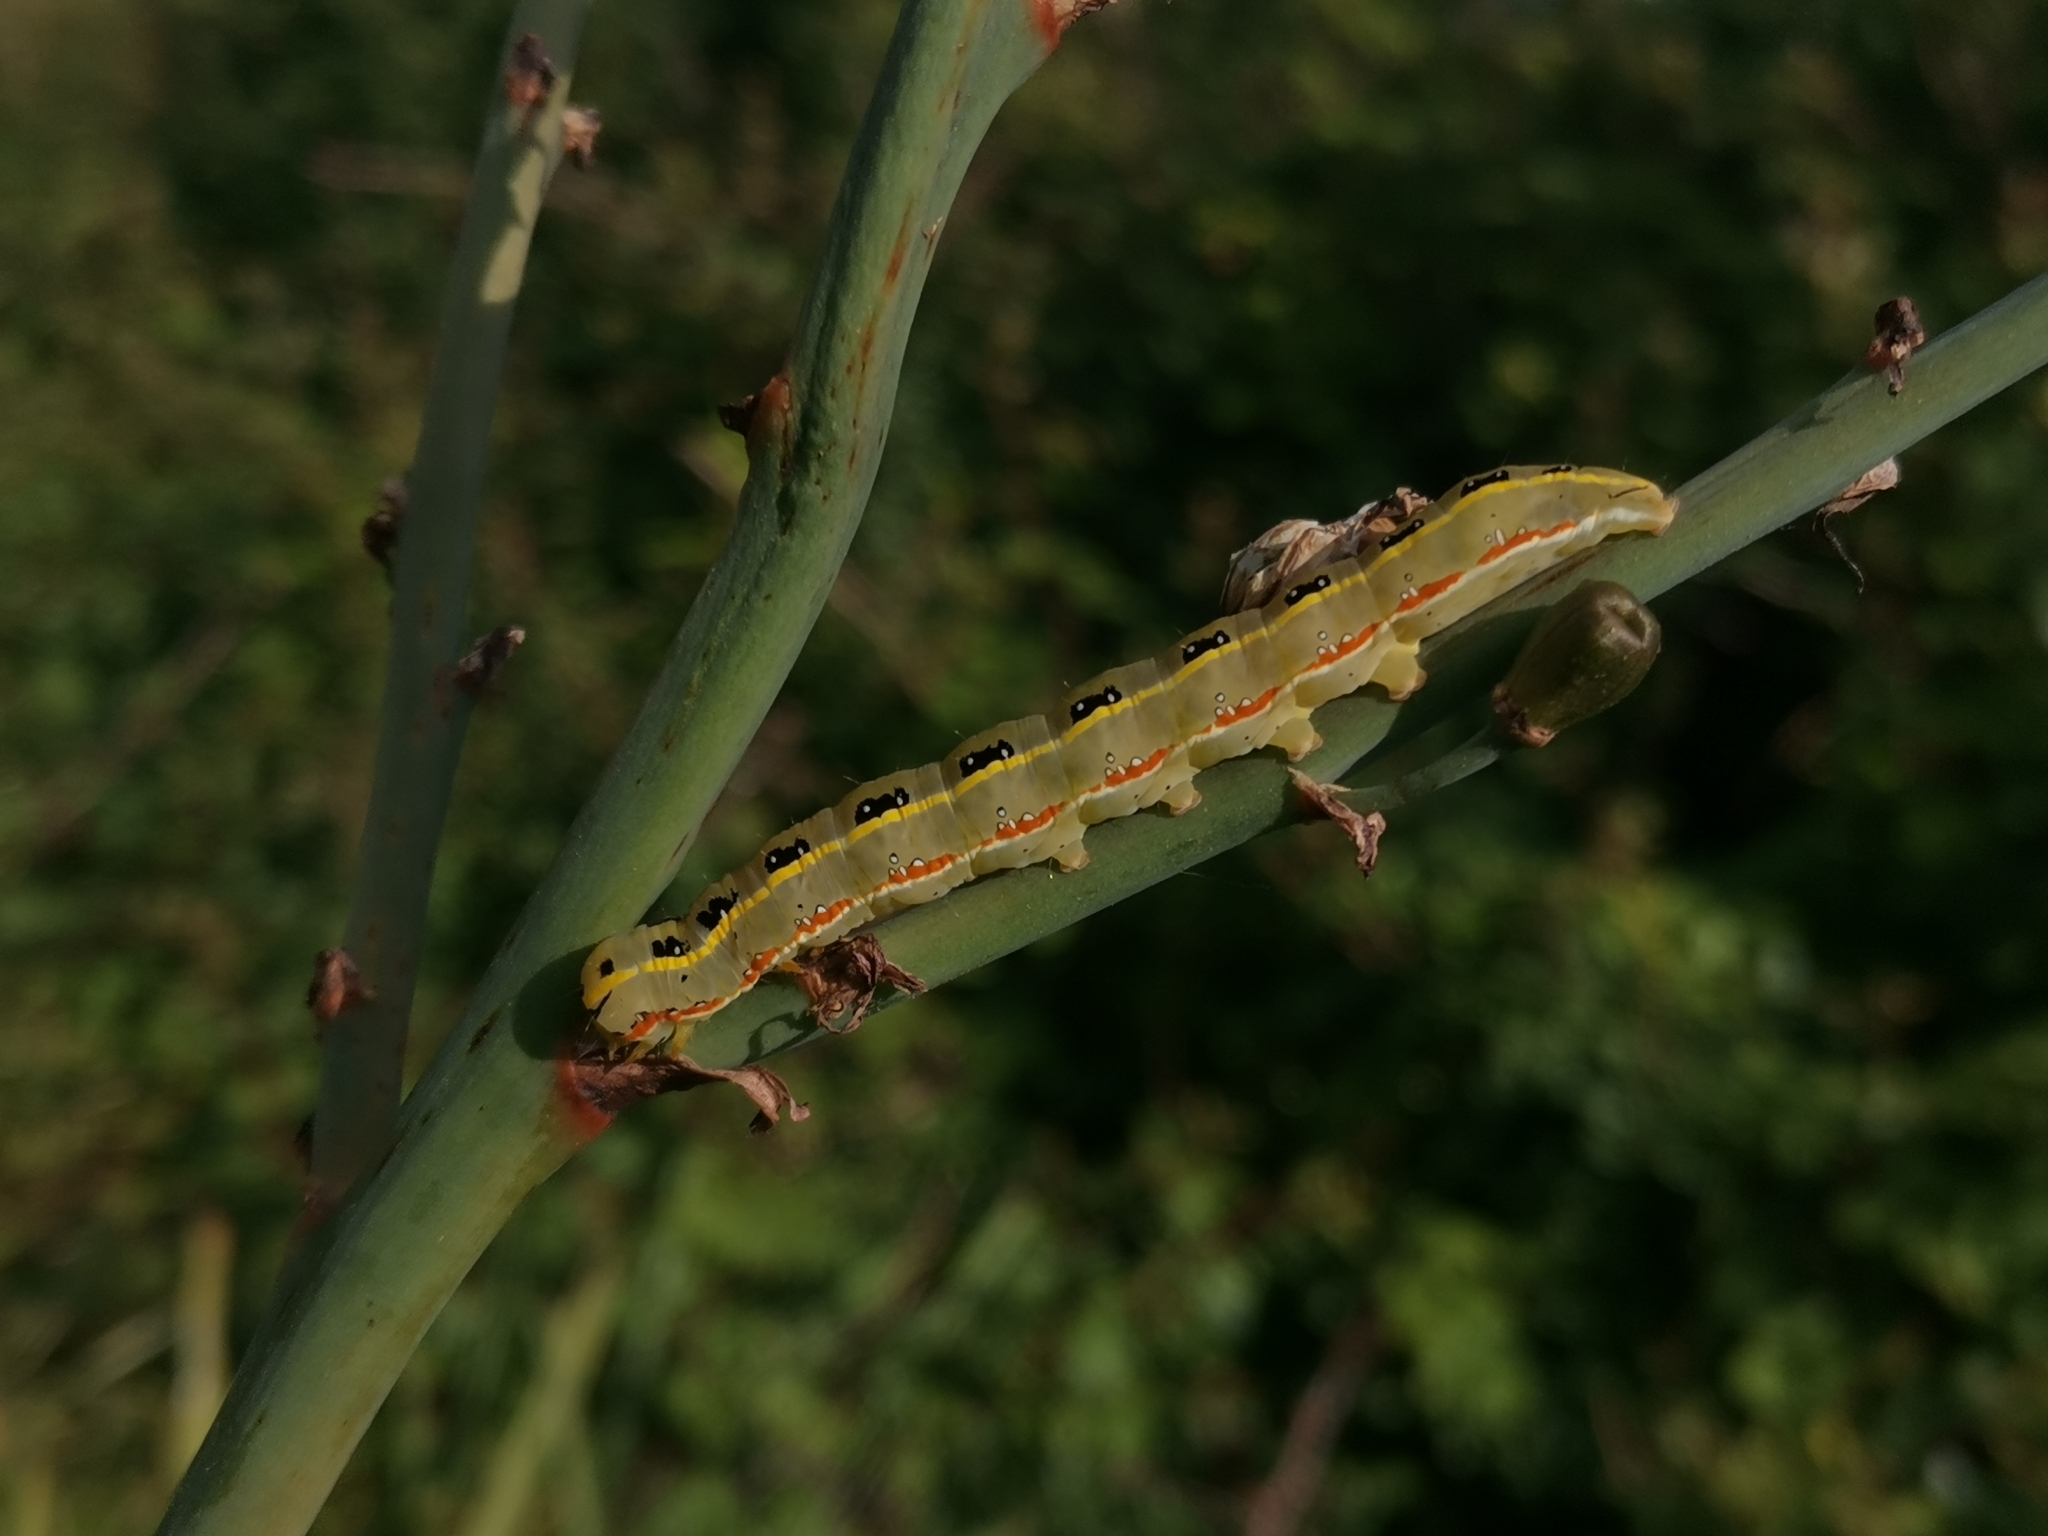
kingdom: Animalia
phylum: Arthropoda
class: Insecta
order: Lepidoptera
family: Noctuidae
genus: Xylena
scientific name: Xylena exsoleta
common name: Sword-grass
